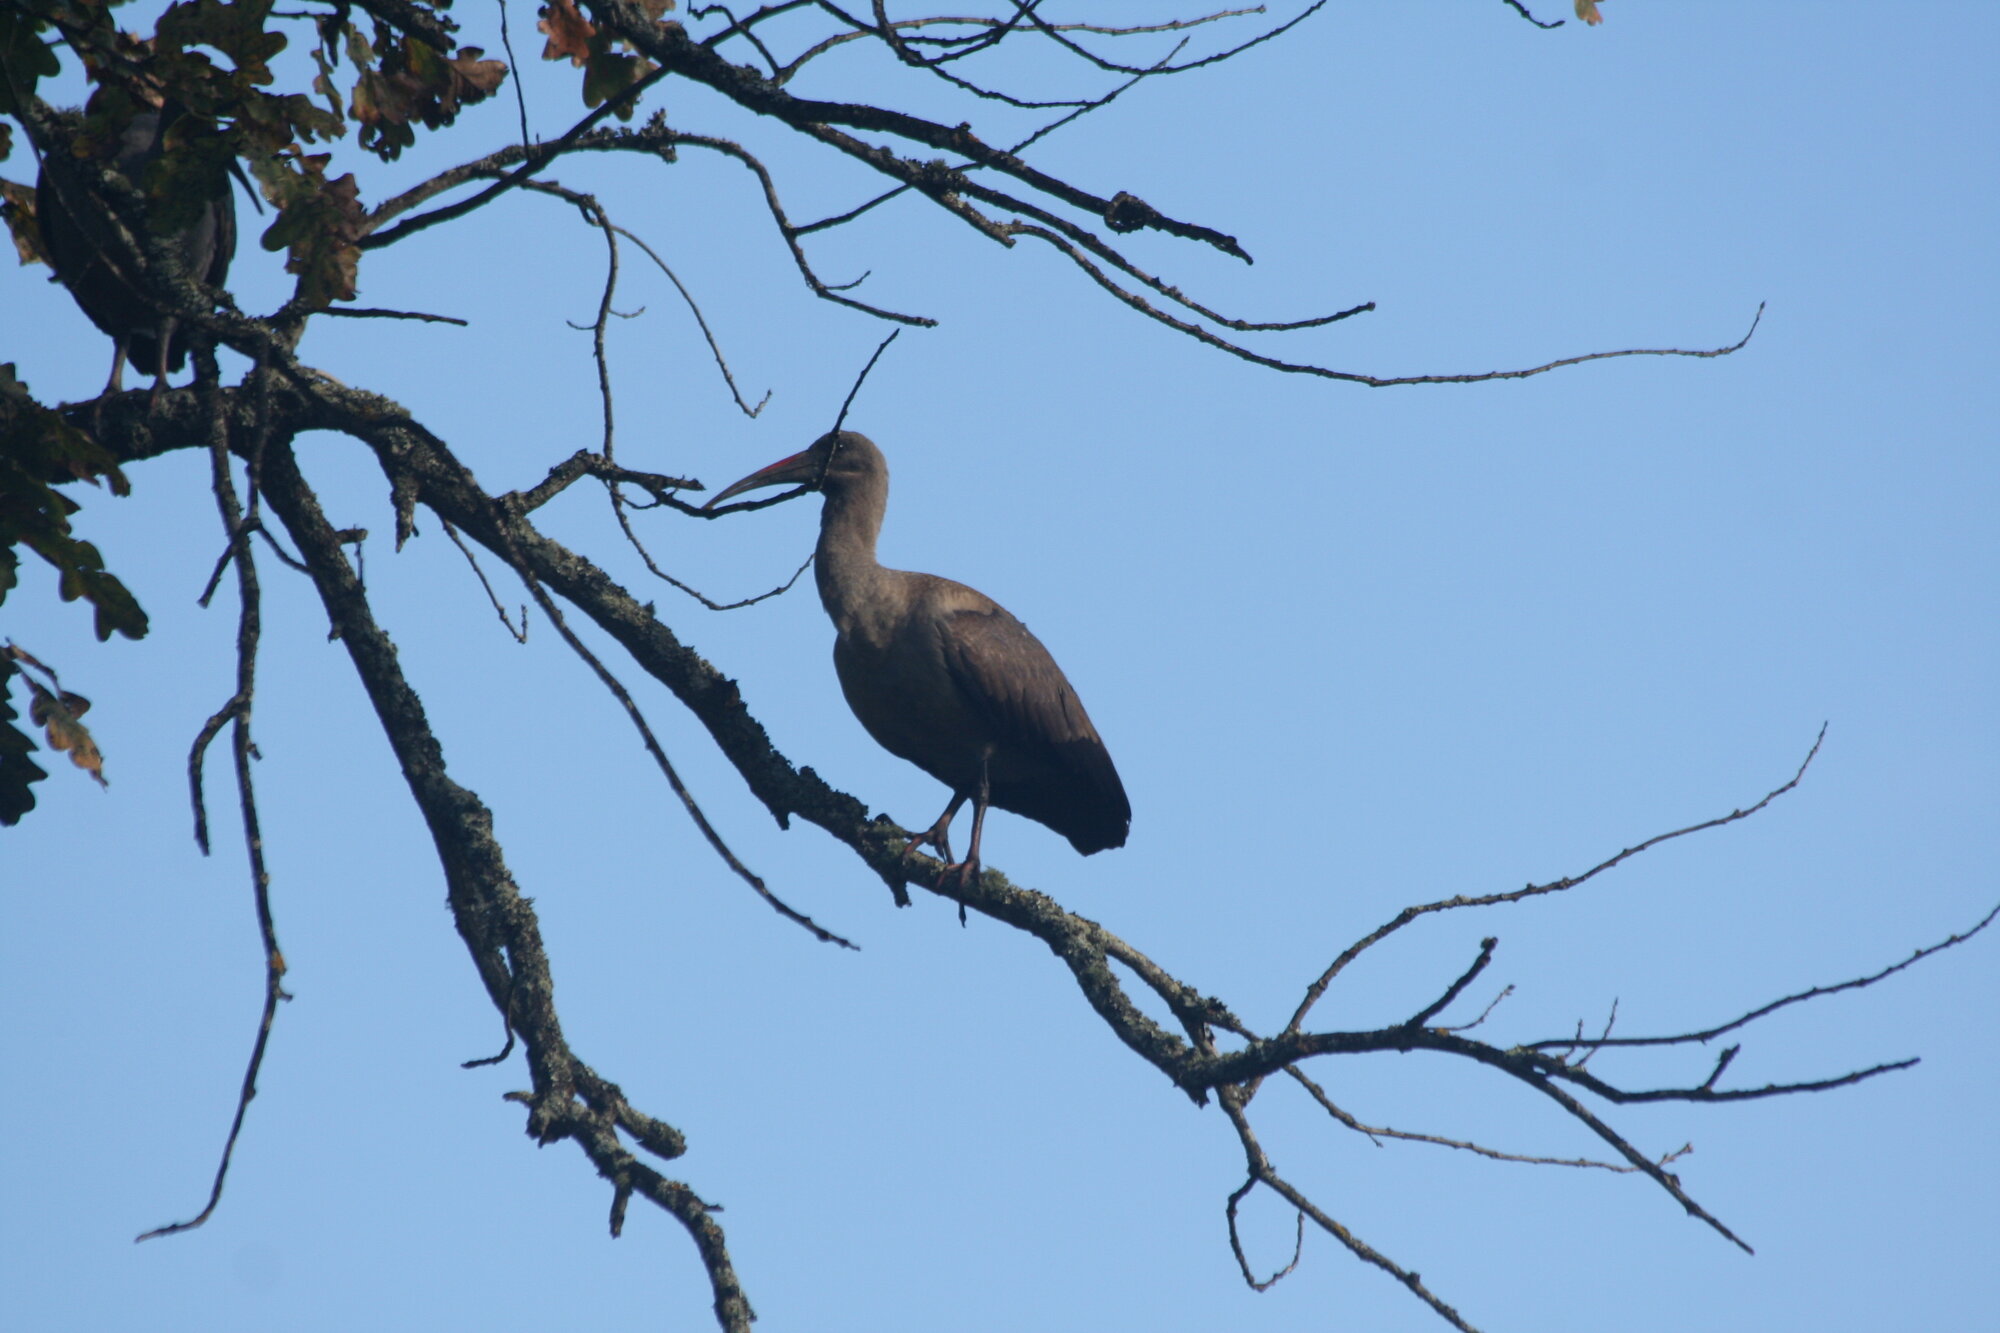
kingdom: Animalia
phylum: Chordata
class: Aves
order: Pelecaniformes
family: Threskiornithidae
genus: Bostrychia
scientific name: Bostrychia hagedash
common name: Hadada ibis
